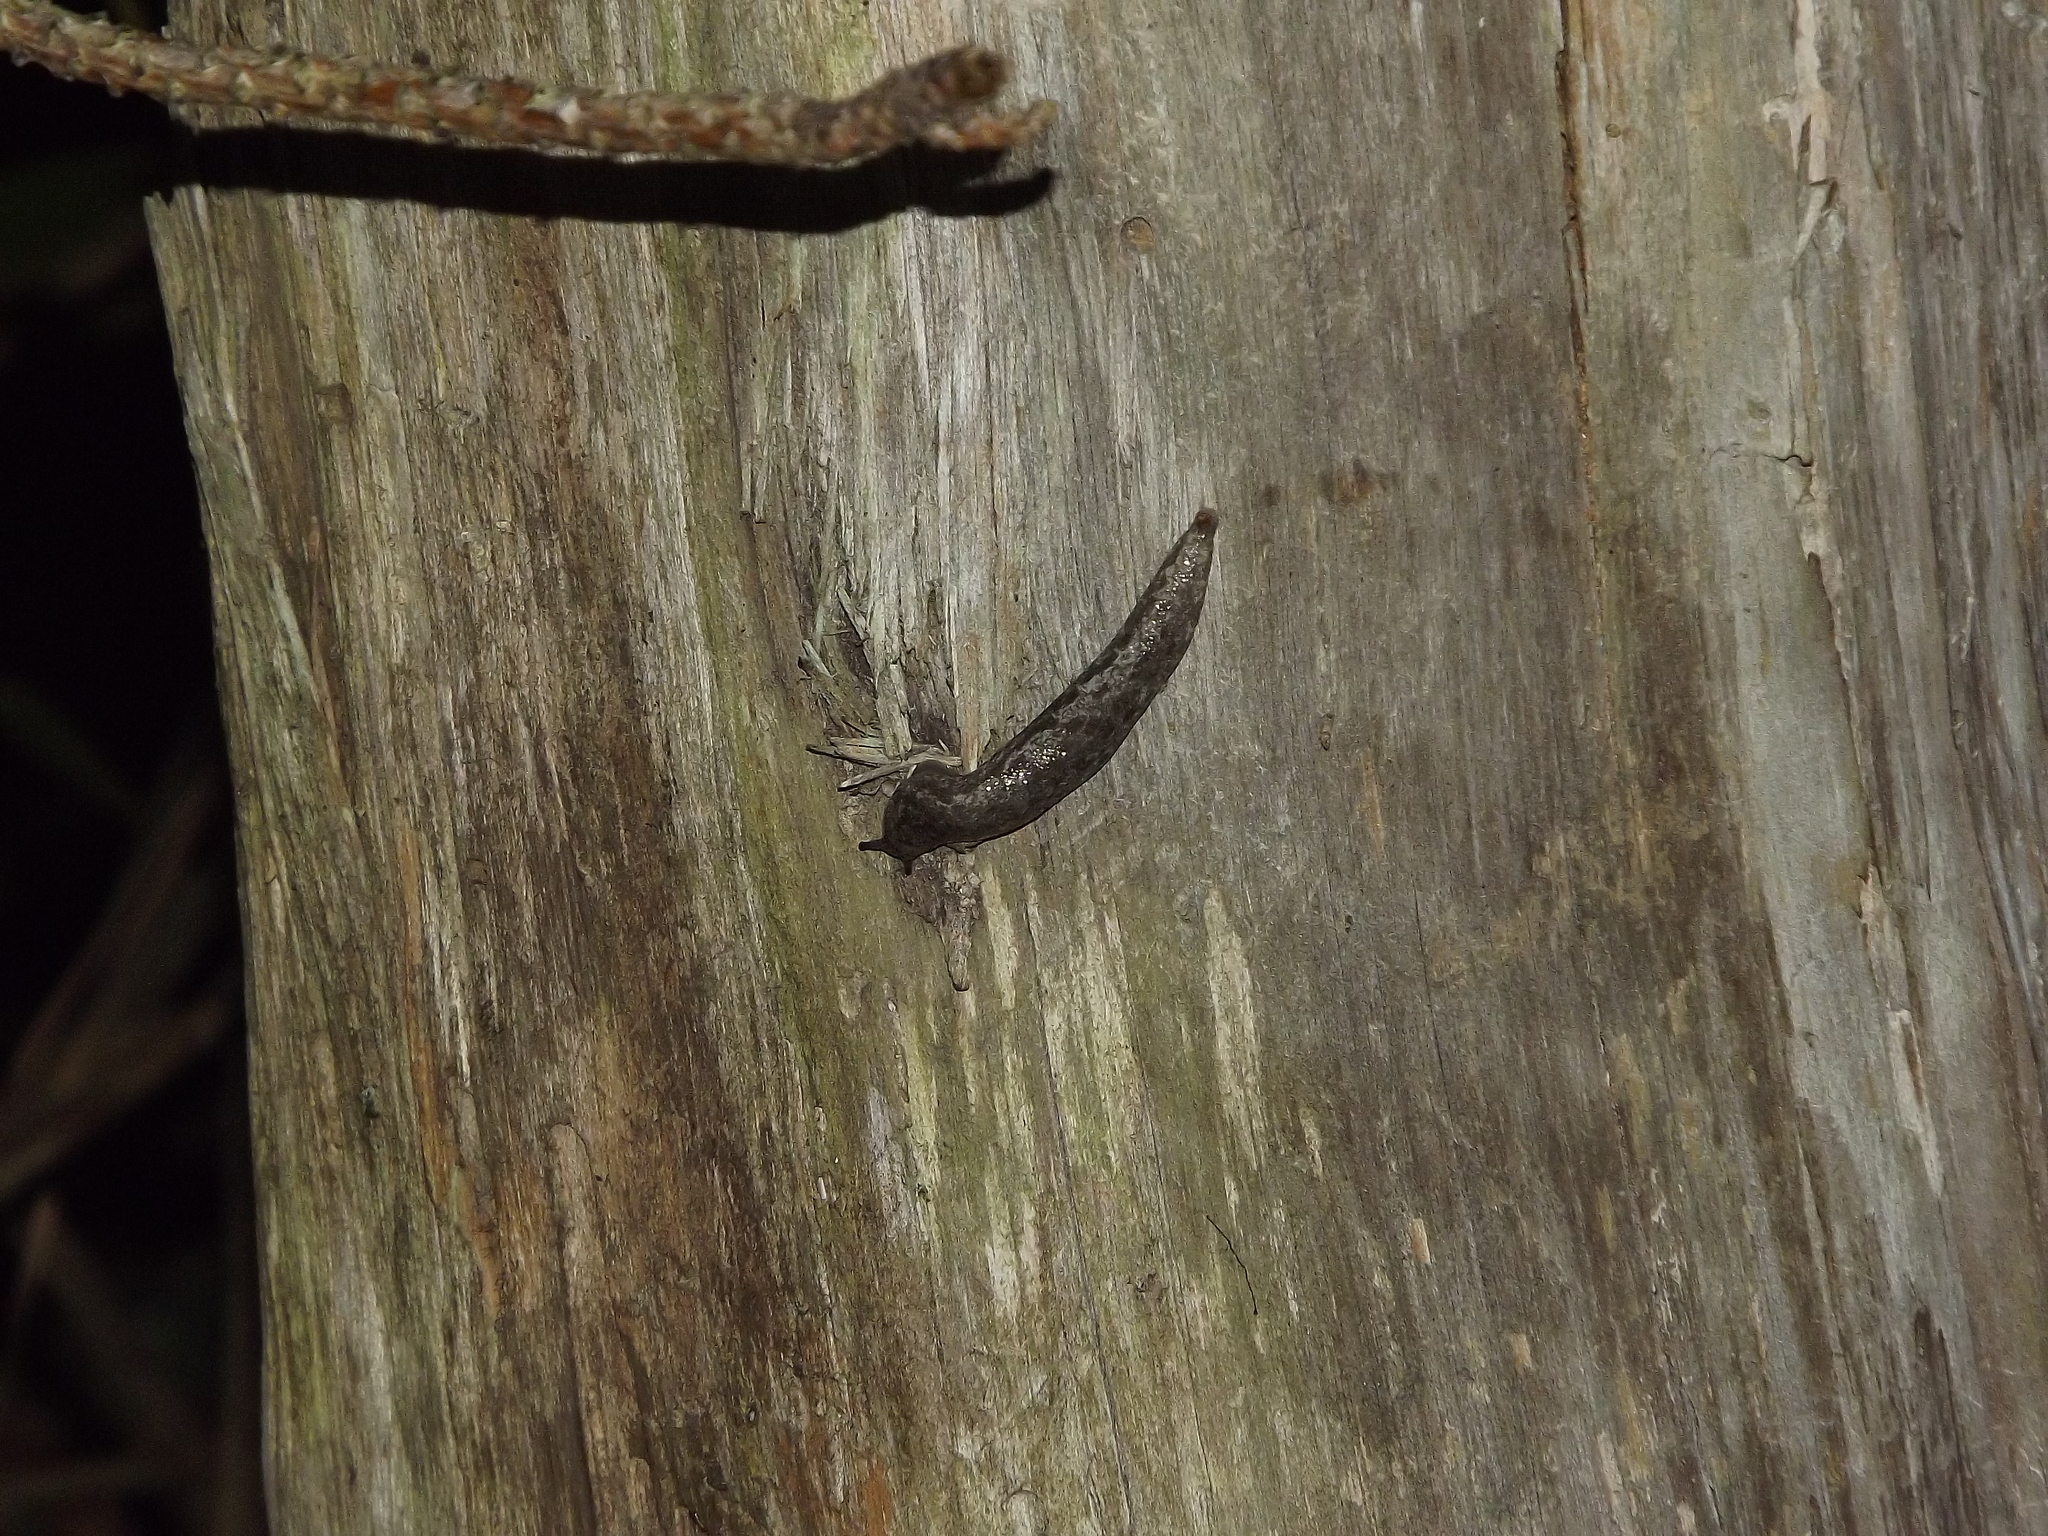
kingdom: Animalia
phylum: Mollusca
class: Gastropoda
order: Stylommatophora
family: Philomycidae
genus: Megapallifera
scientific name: Megapallifera mutabilis
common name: Changeable mantleslug
